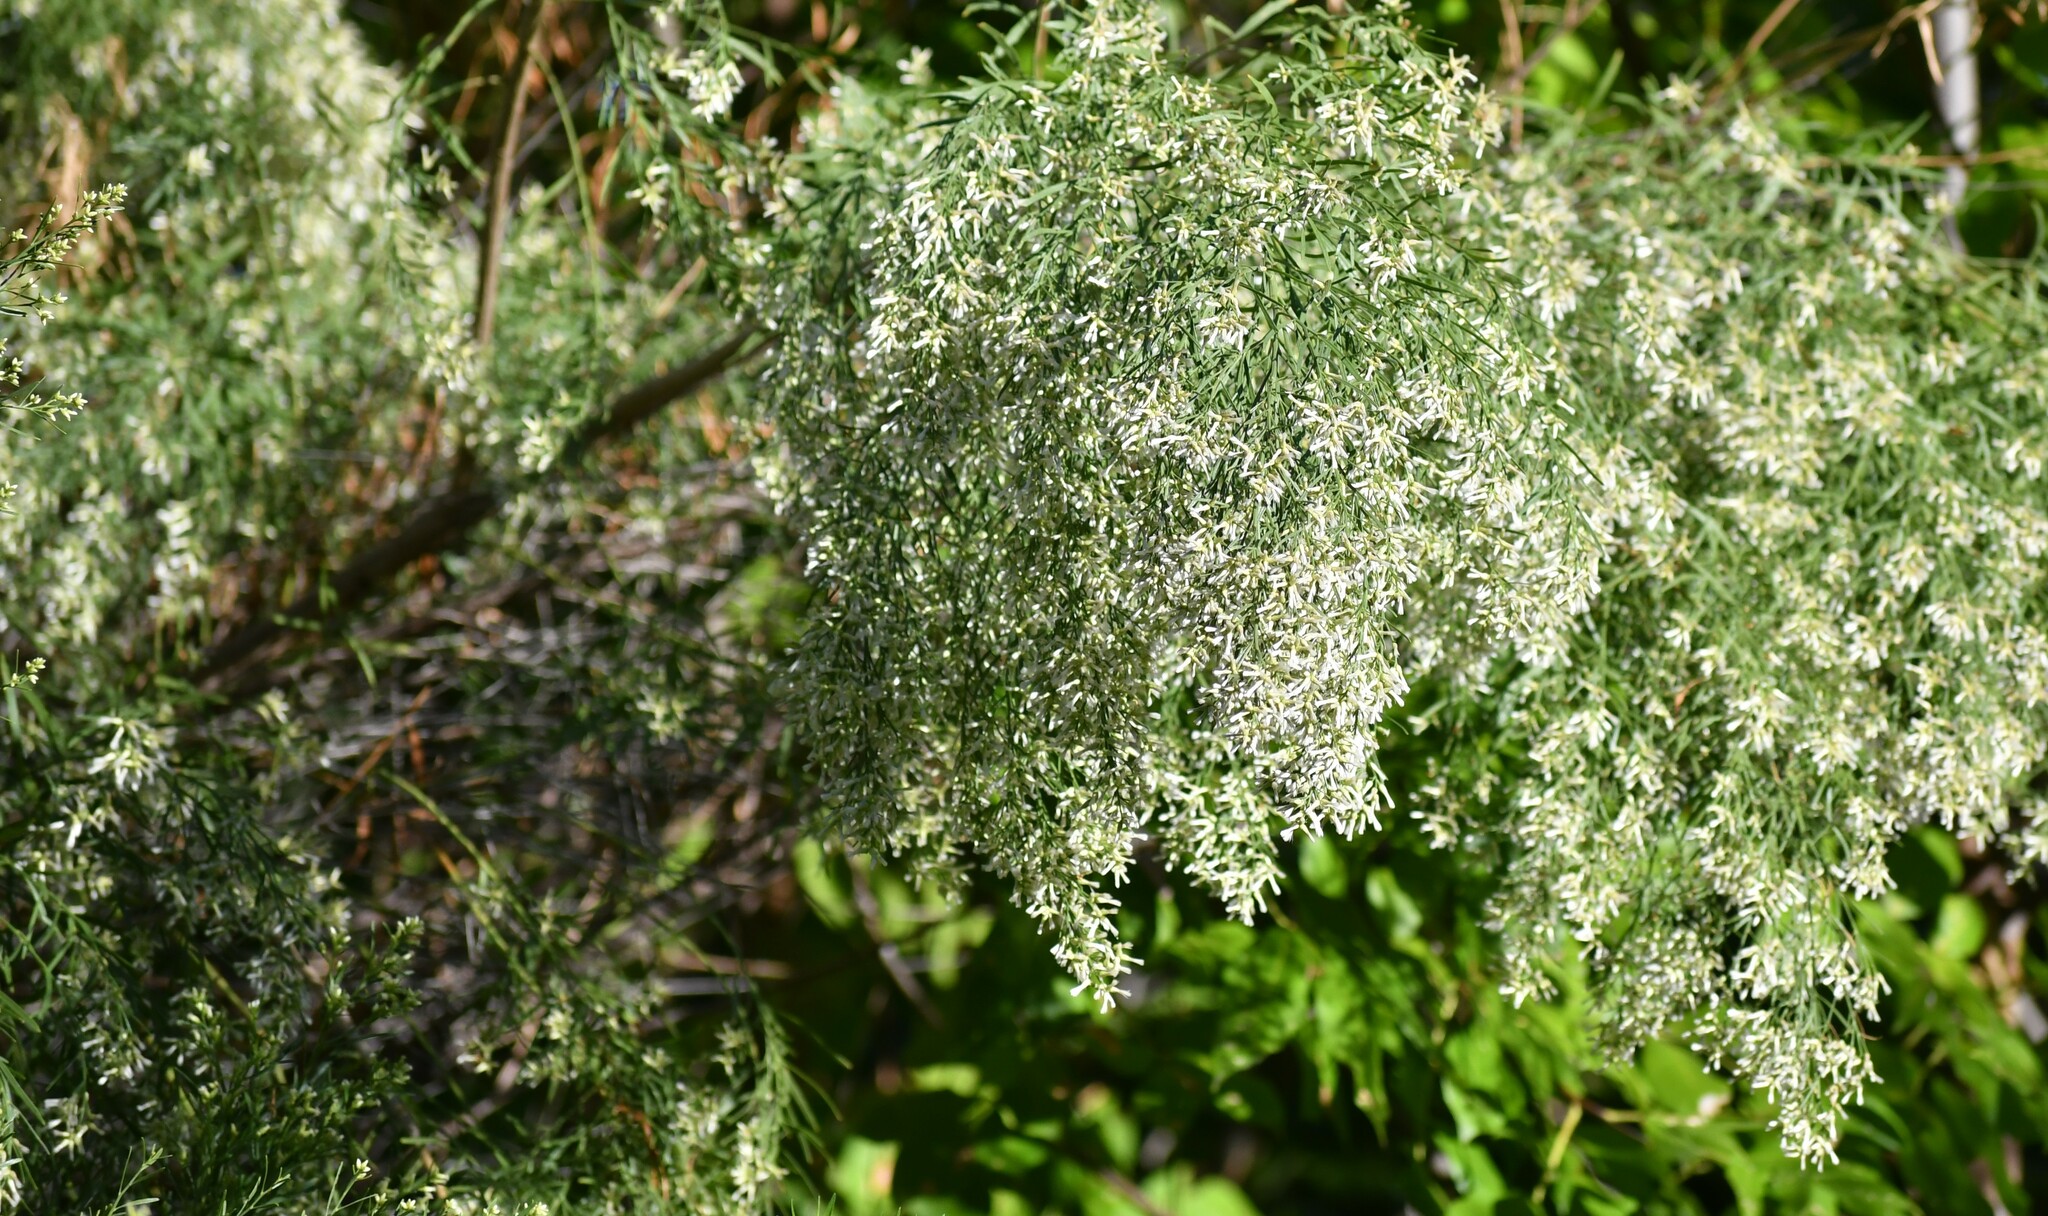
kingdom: Plantae
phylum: Tracheophyta
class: Magnoliopsida
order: Asterales
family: Asteraceae
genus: Baccharis
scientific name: Baccharis neglecta
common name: Roosevelt-weed
